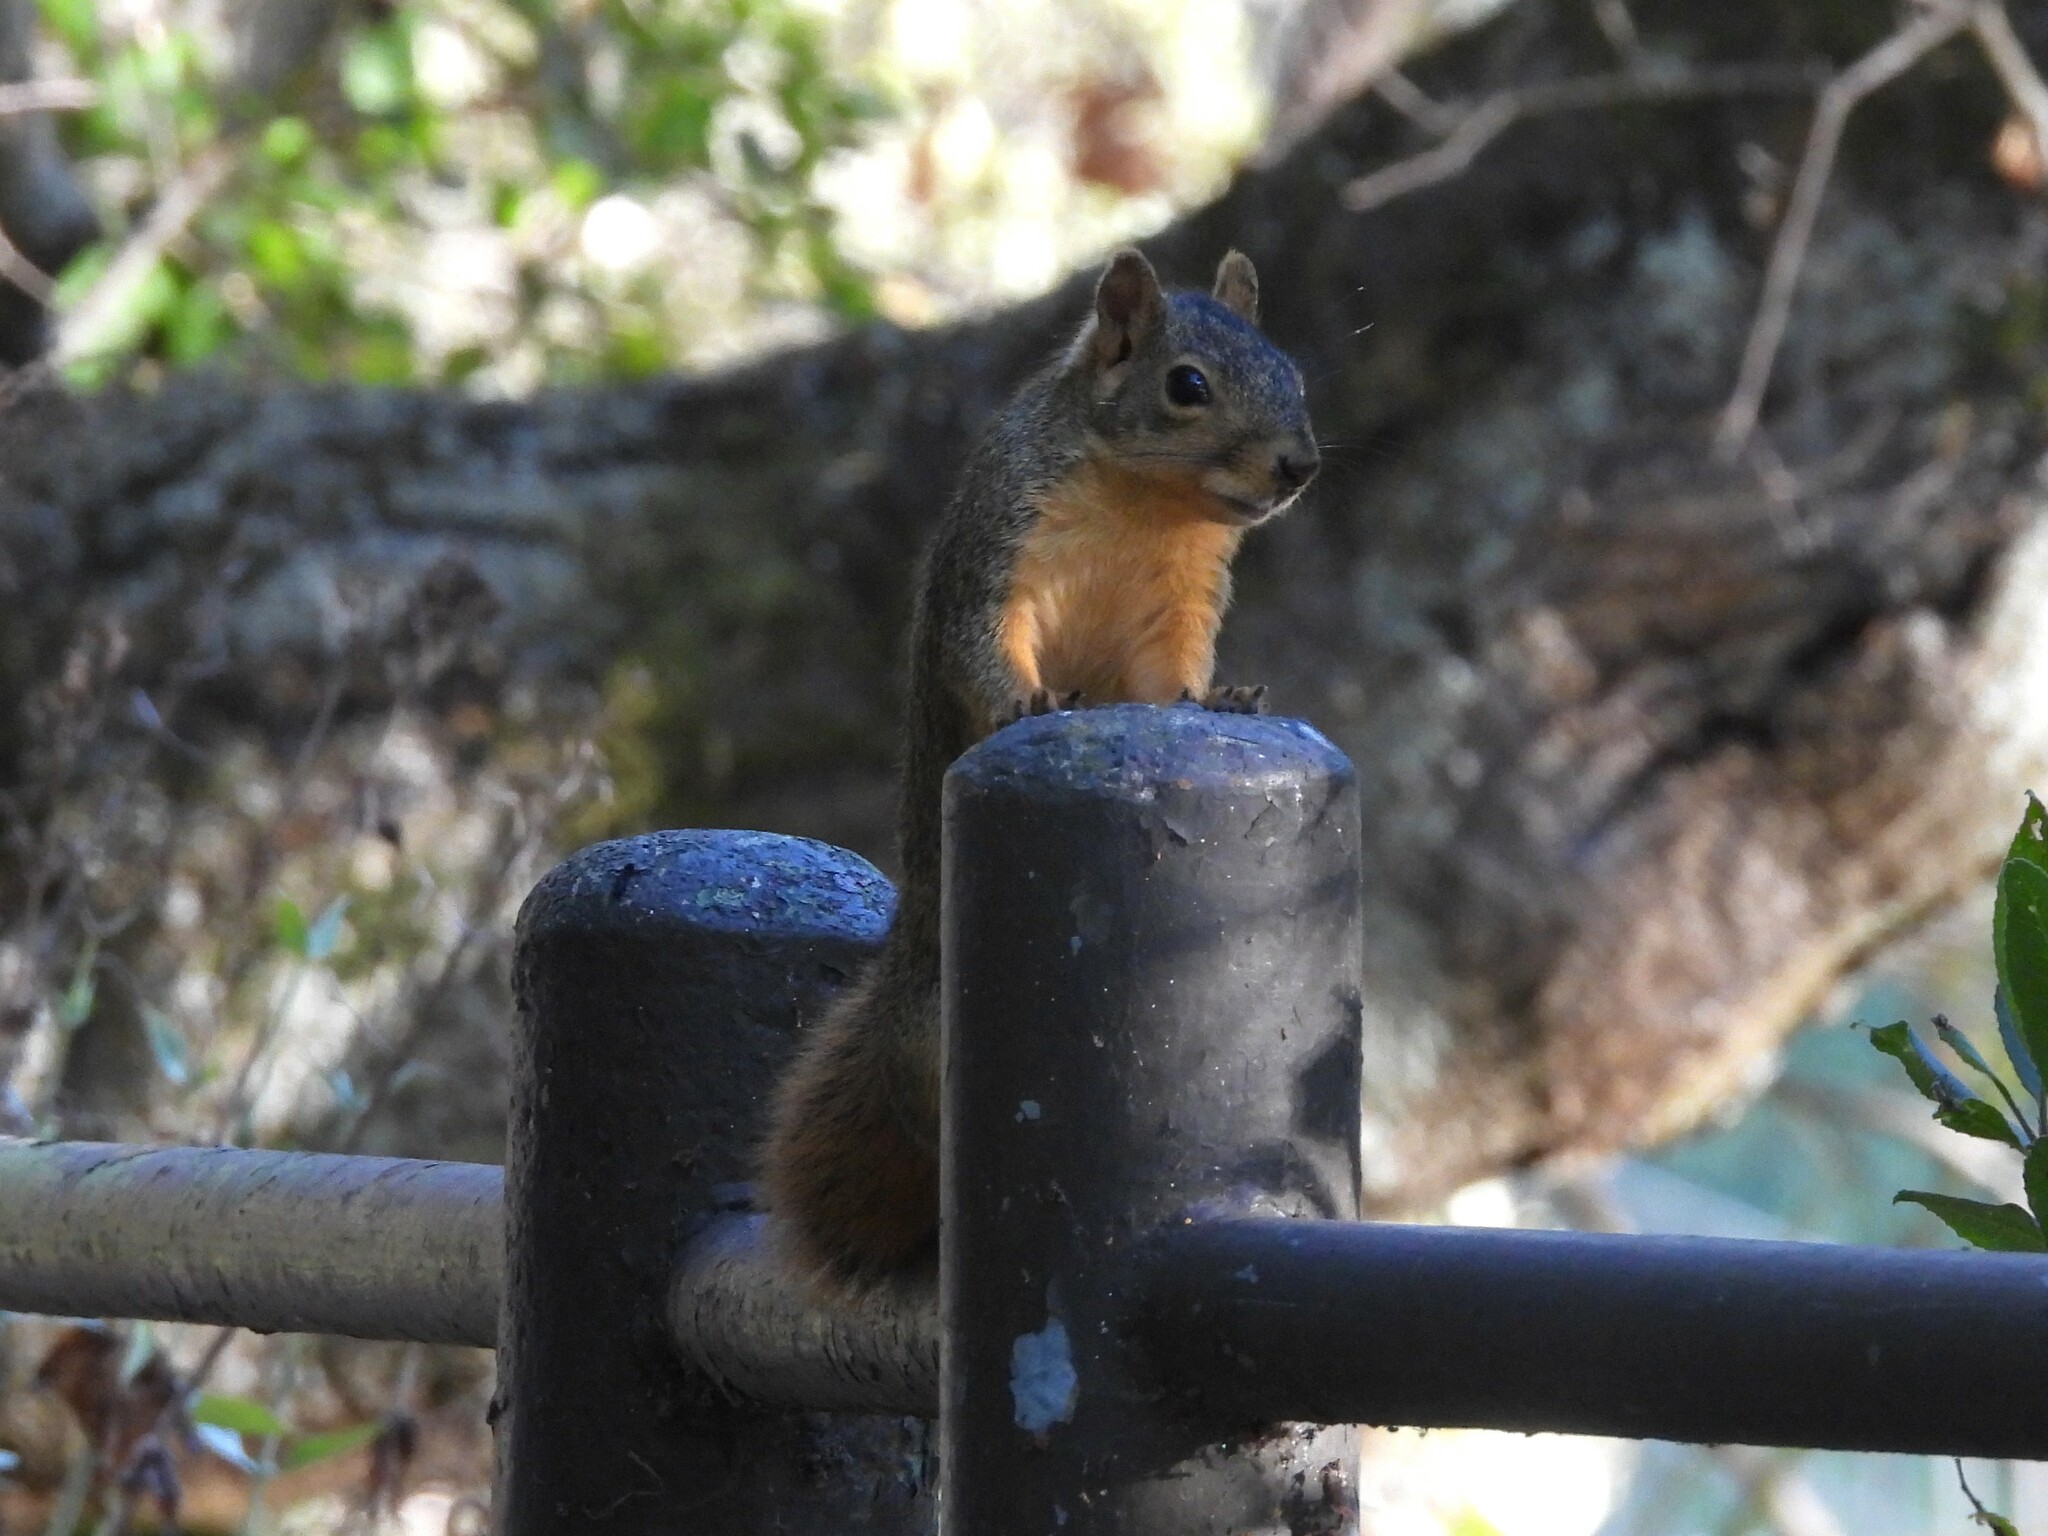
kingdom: Animalia
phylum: Chordata
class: Mammalia
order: Rodentia
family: Sciuridae
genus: Sciurus
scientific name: Sciurus niger
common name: Fox squirrel
